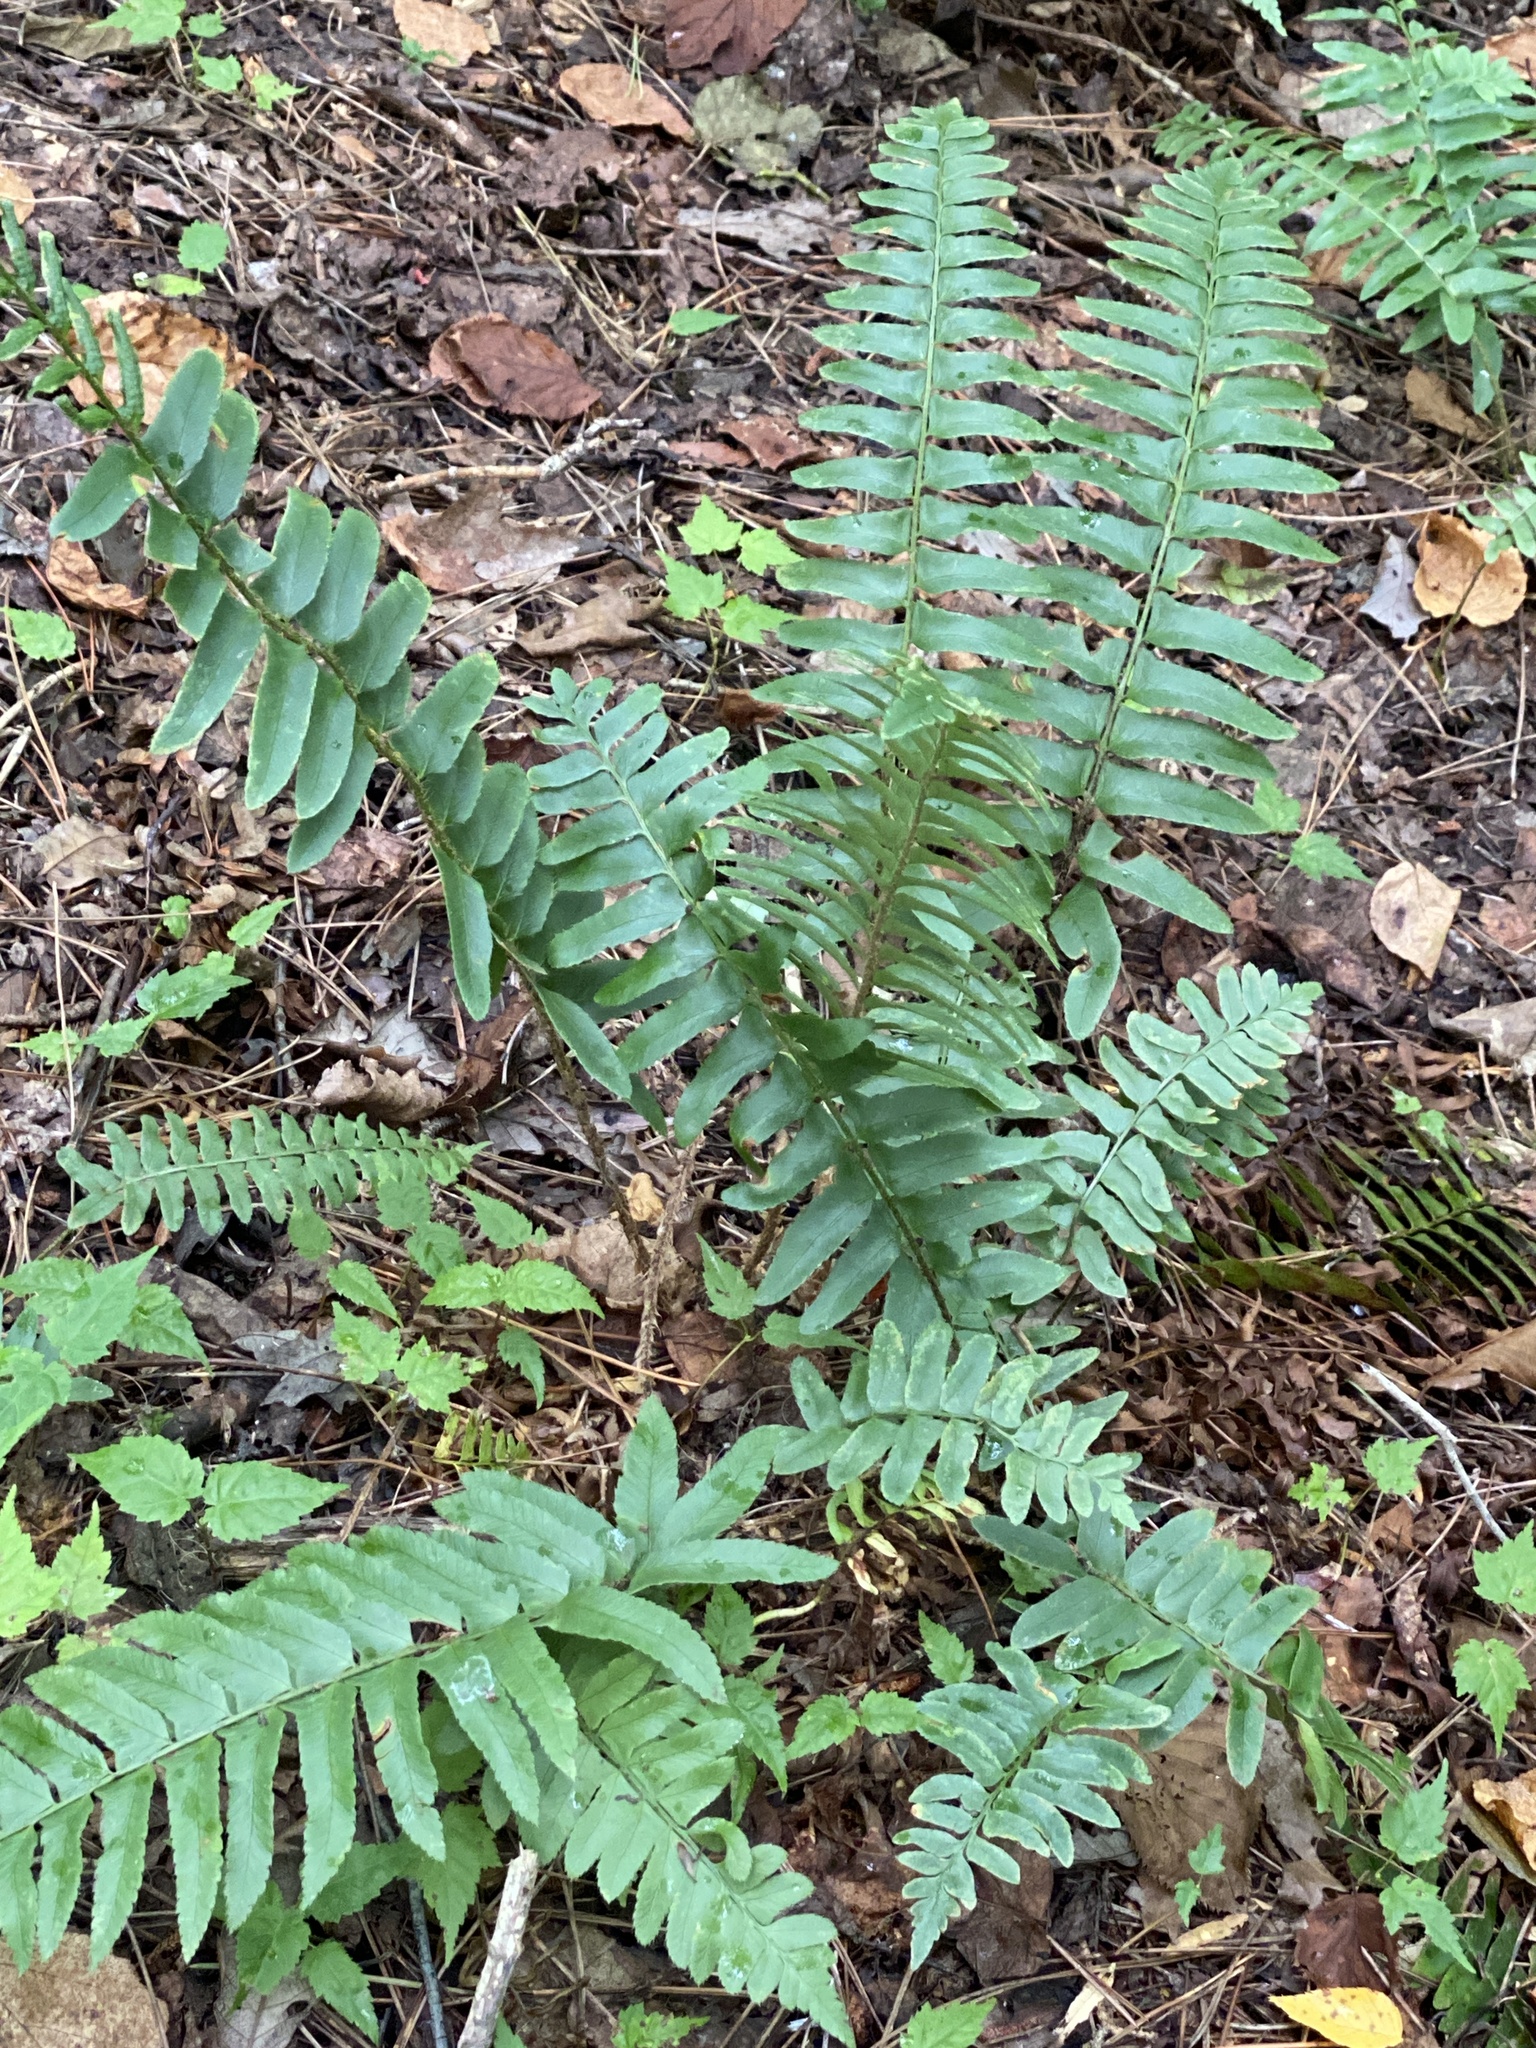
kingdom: Plantae
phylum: Tracheophyta
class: Polypodiopsida
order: Polypodiales
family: Dryopteridaceae
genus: Polystichum
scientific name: Polystichum acrostichoides
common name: Christmas fern
